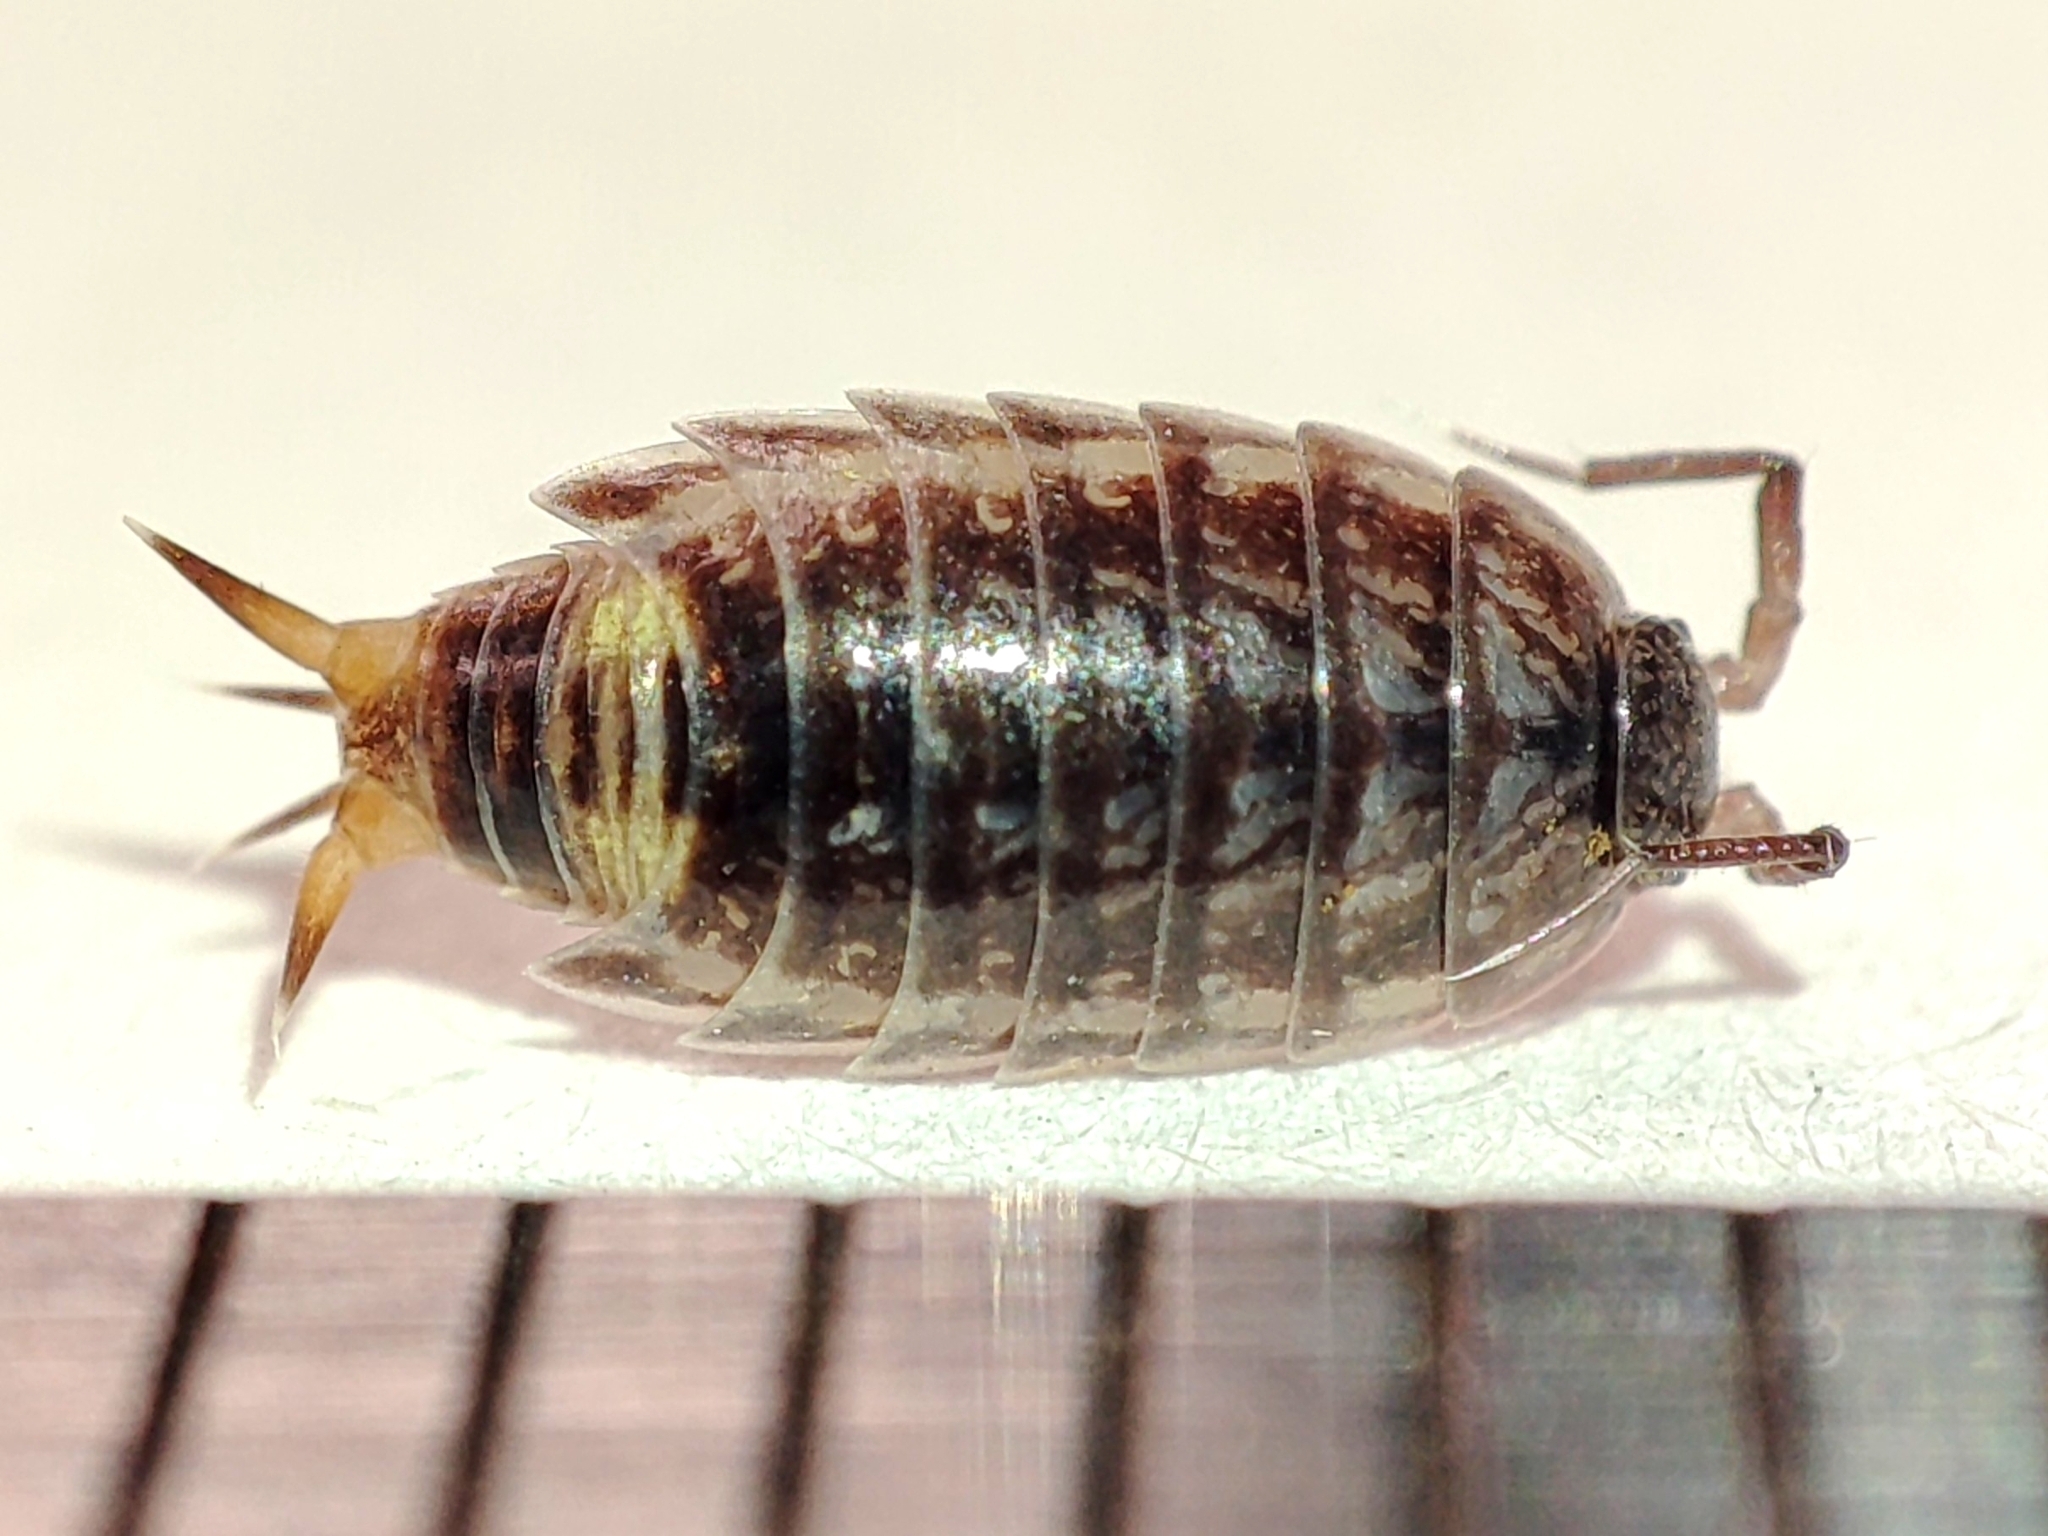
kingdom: Animalia
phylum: Arthropoda
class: Malacostraca
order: Isopoda
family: Trichoniscidae
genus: Hyloniscus
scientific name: Hyloniscus mariae
